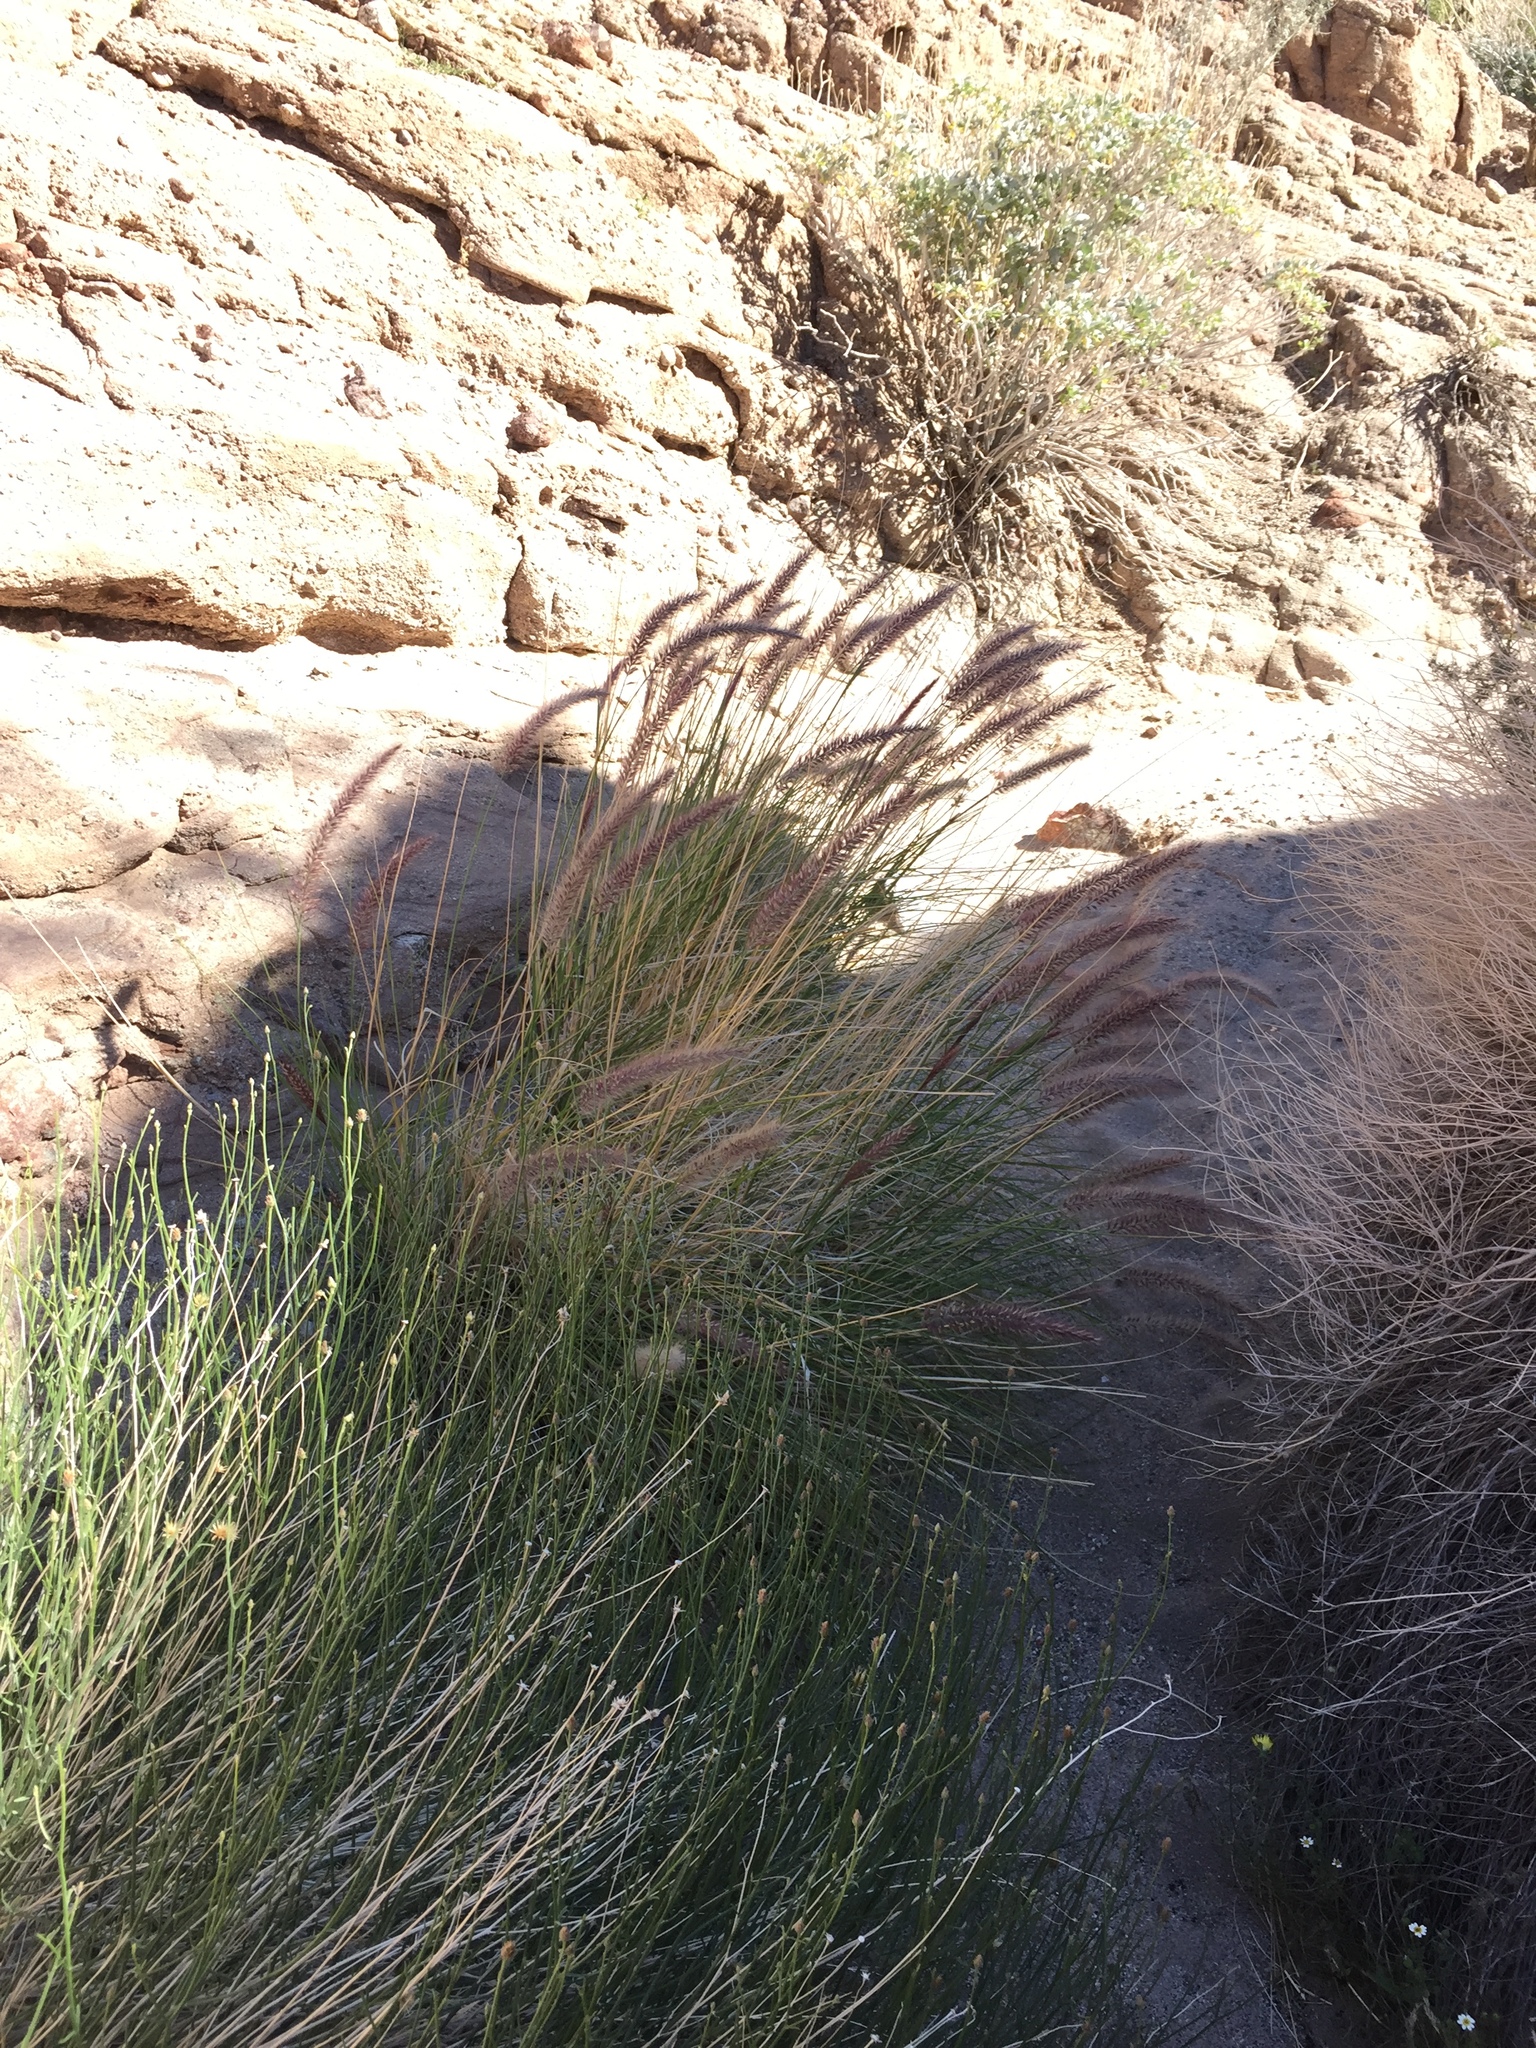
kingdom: Plantae
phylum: Tracheophyta
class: Liliopsida
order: Poales
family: Poaceae
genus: Cenchrus
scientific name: Cenchrus setaceus
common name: Crimson fountaingrass
